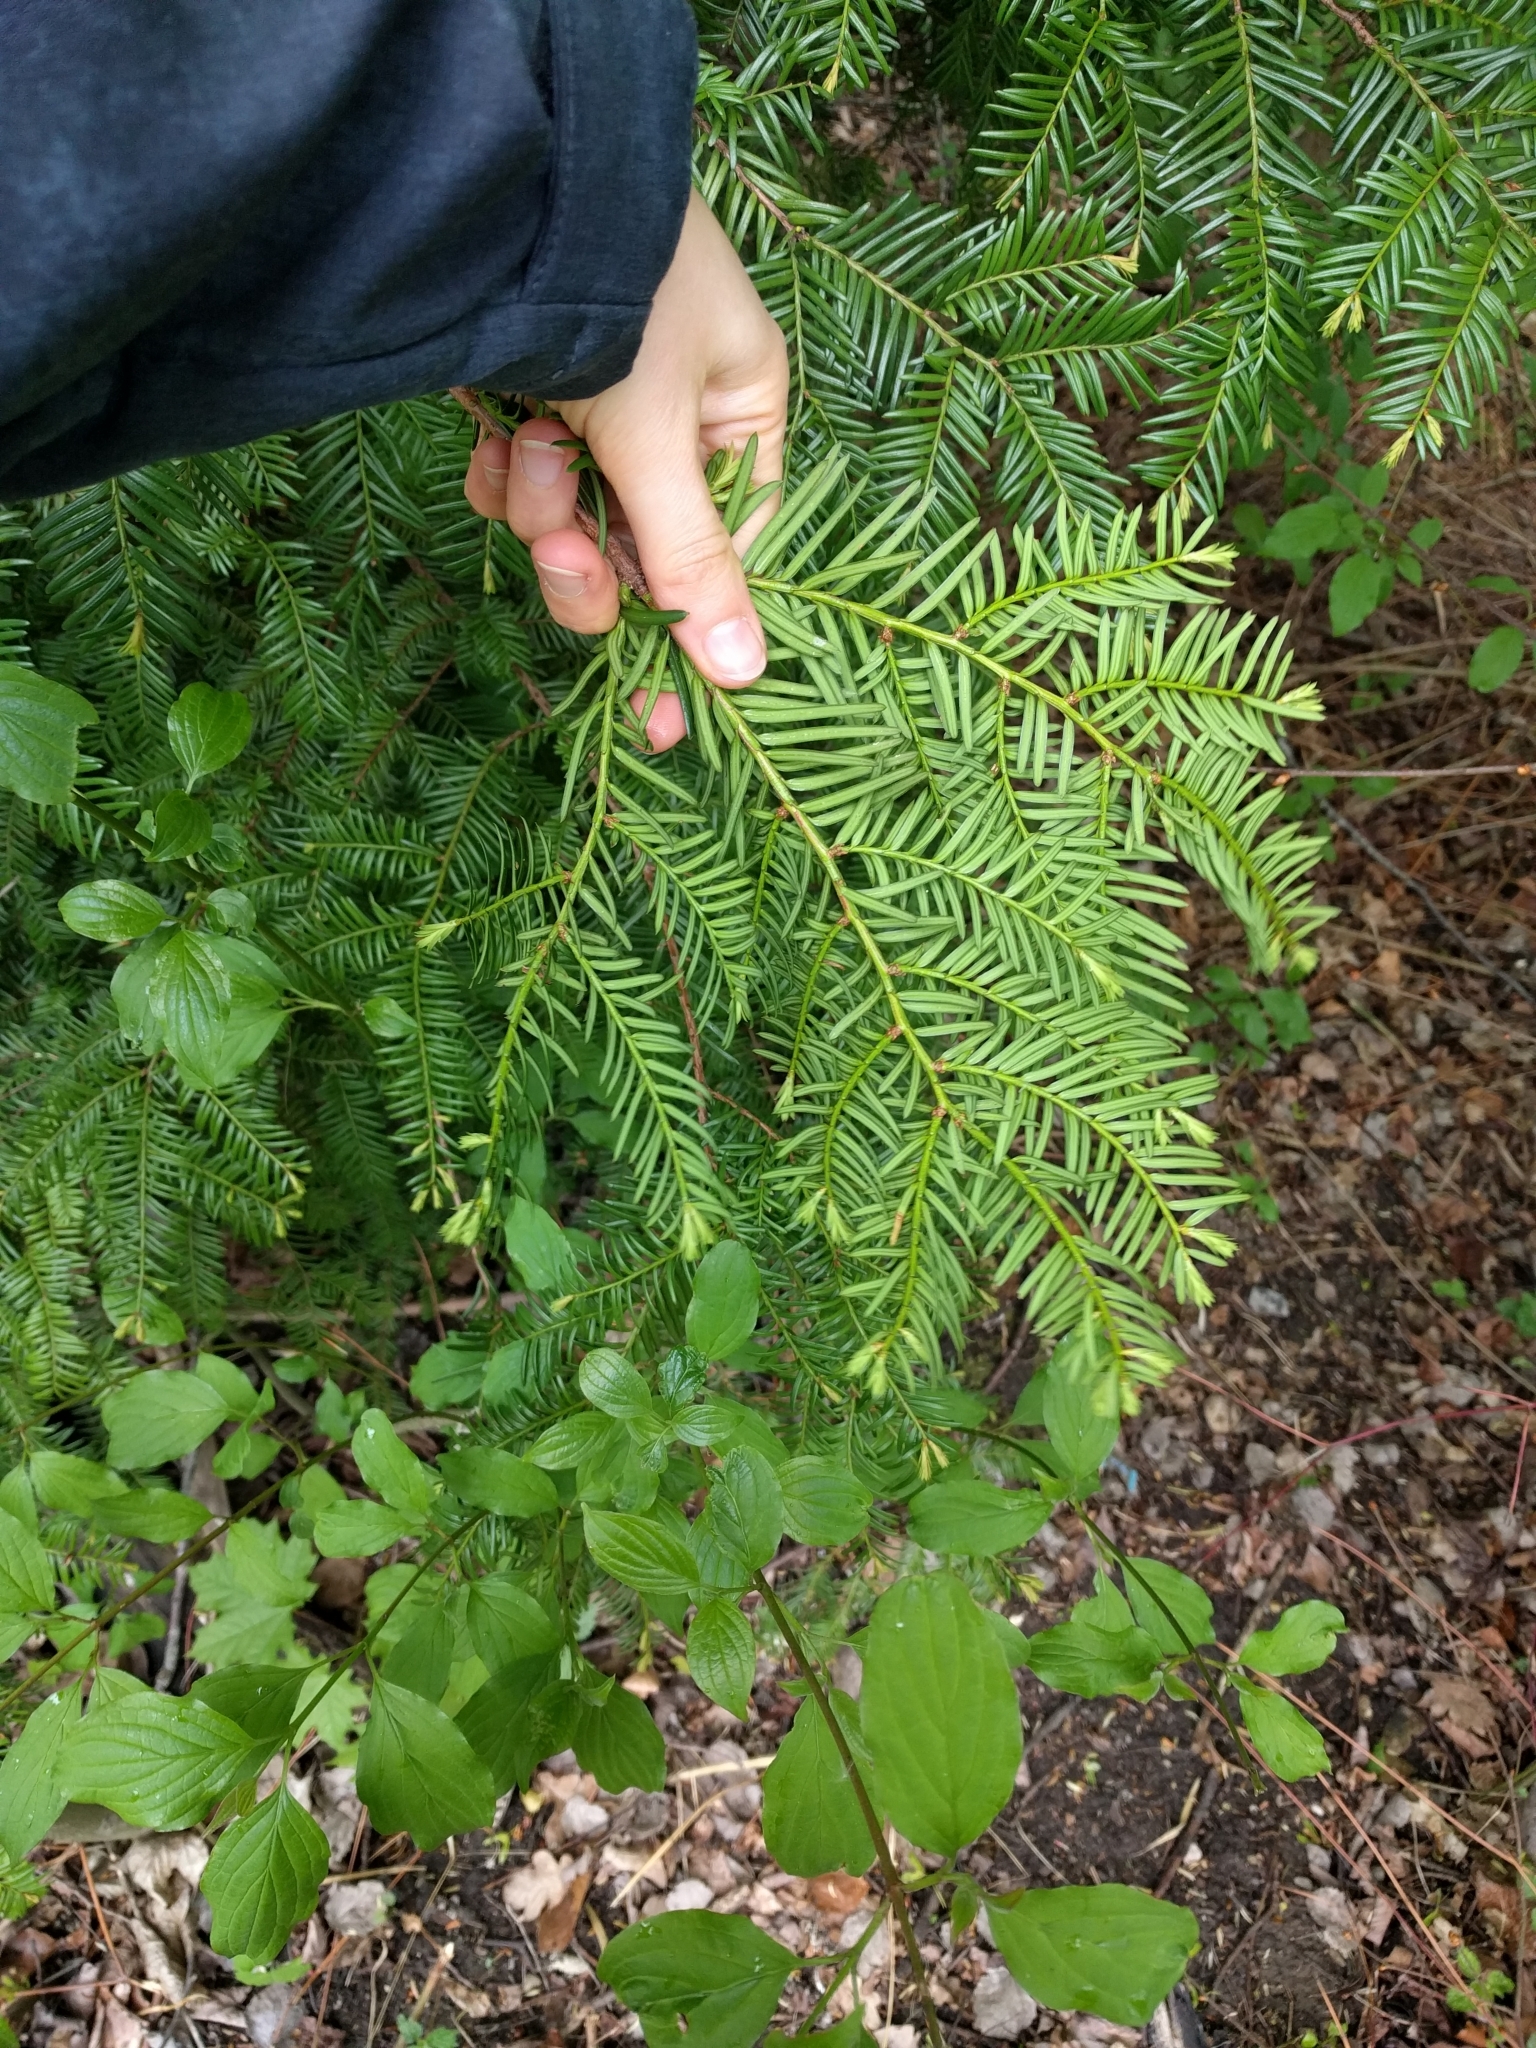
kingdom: Plantae
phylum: Tracheophyta
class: Pinopsida
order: Pinales
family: Taxaceae
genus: Taxus
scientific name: Taxus baccata
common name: Yew
